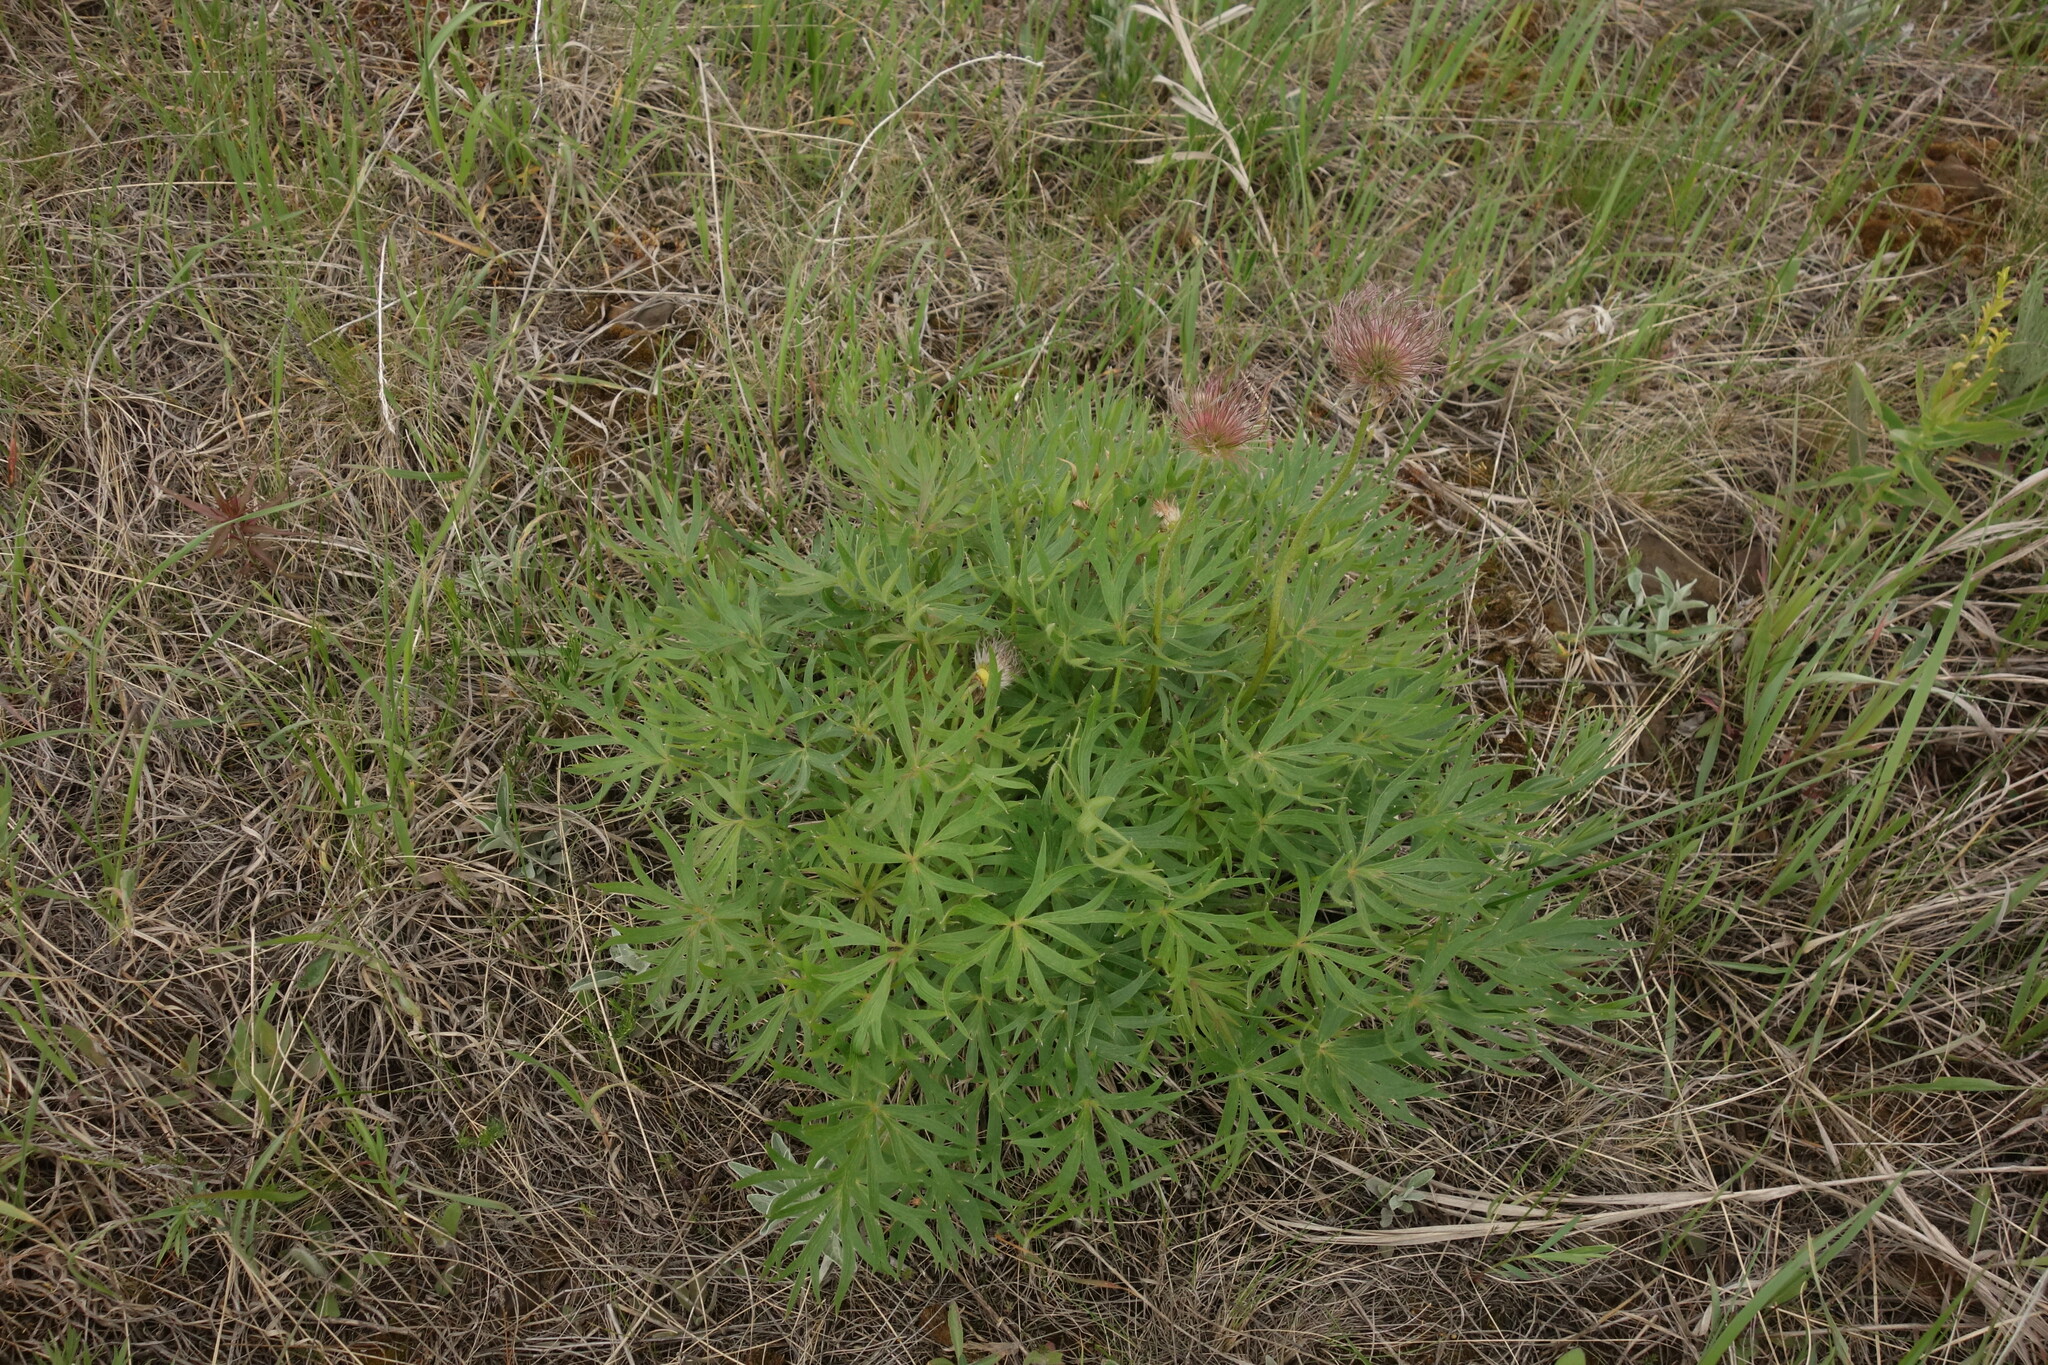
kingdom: Plantae
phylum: Tracheophyta
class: Magnoliopsida
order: Ranunculales
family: Ranunculaceae
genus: Pulsatilla
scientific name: Pulsatilla patens
